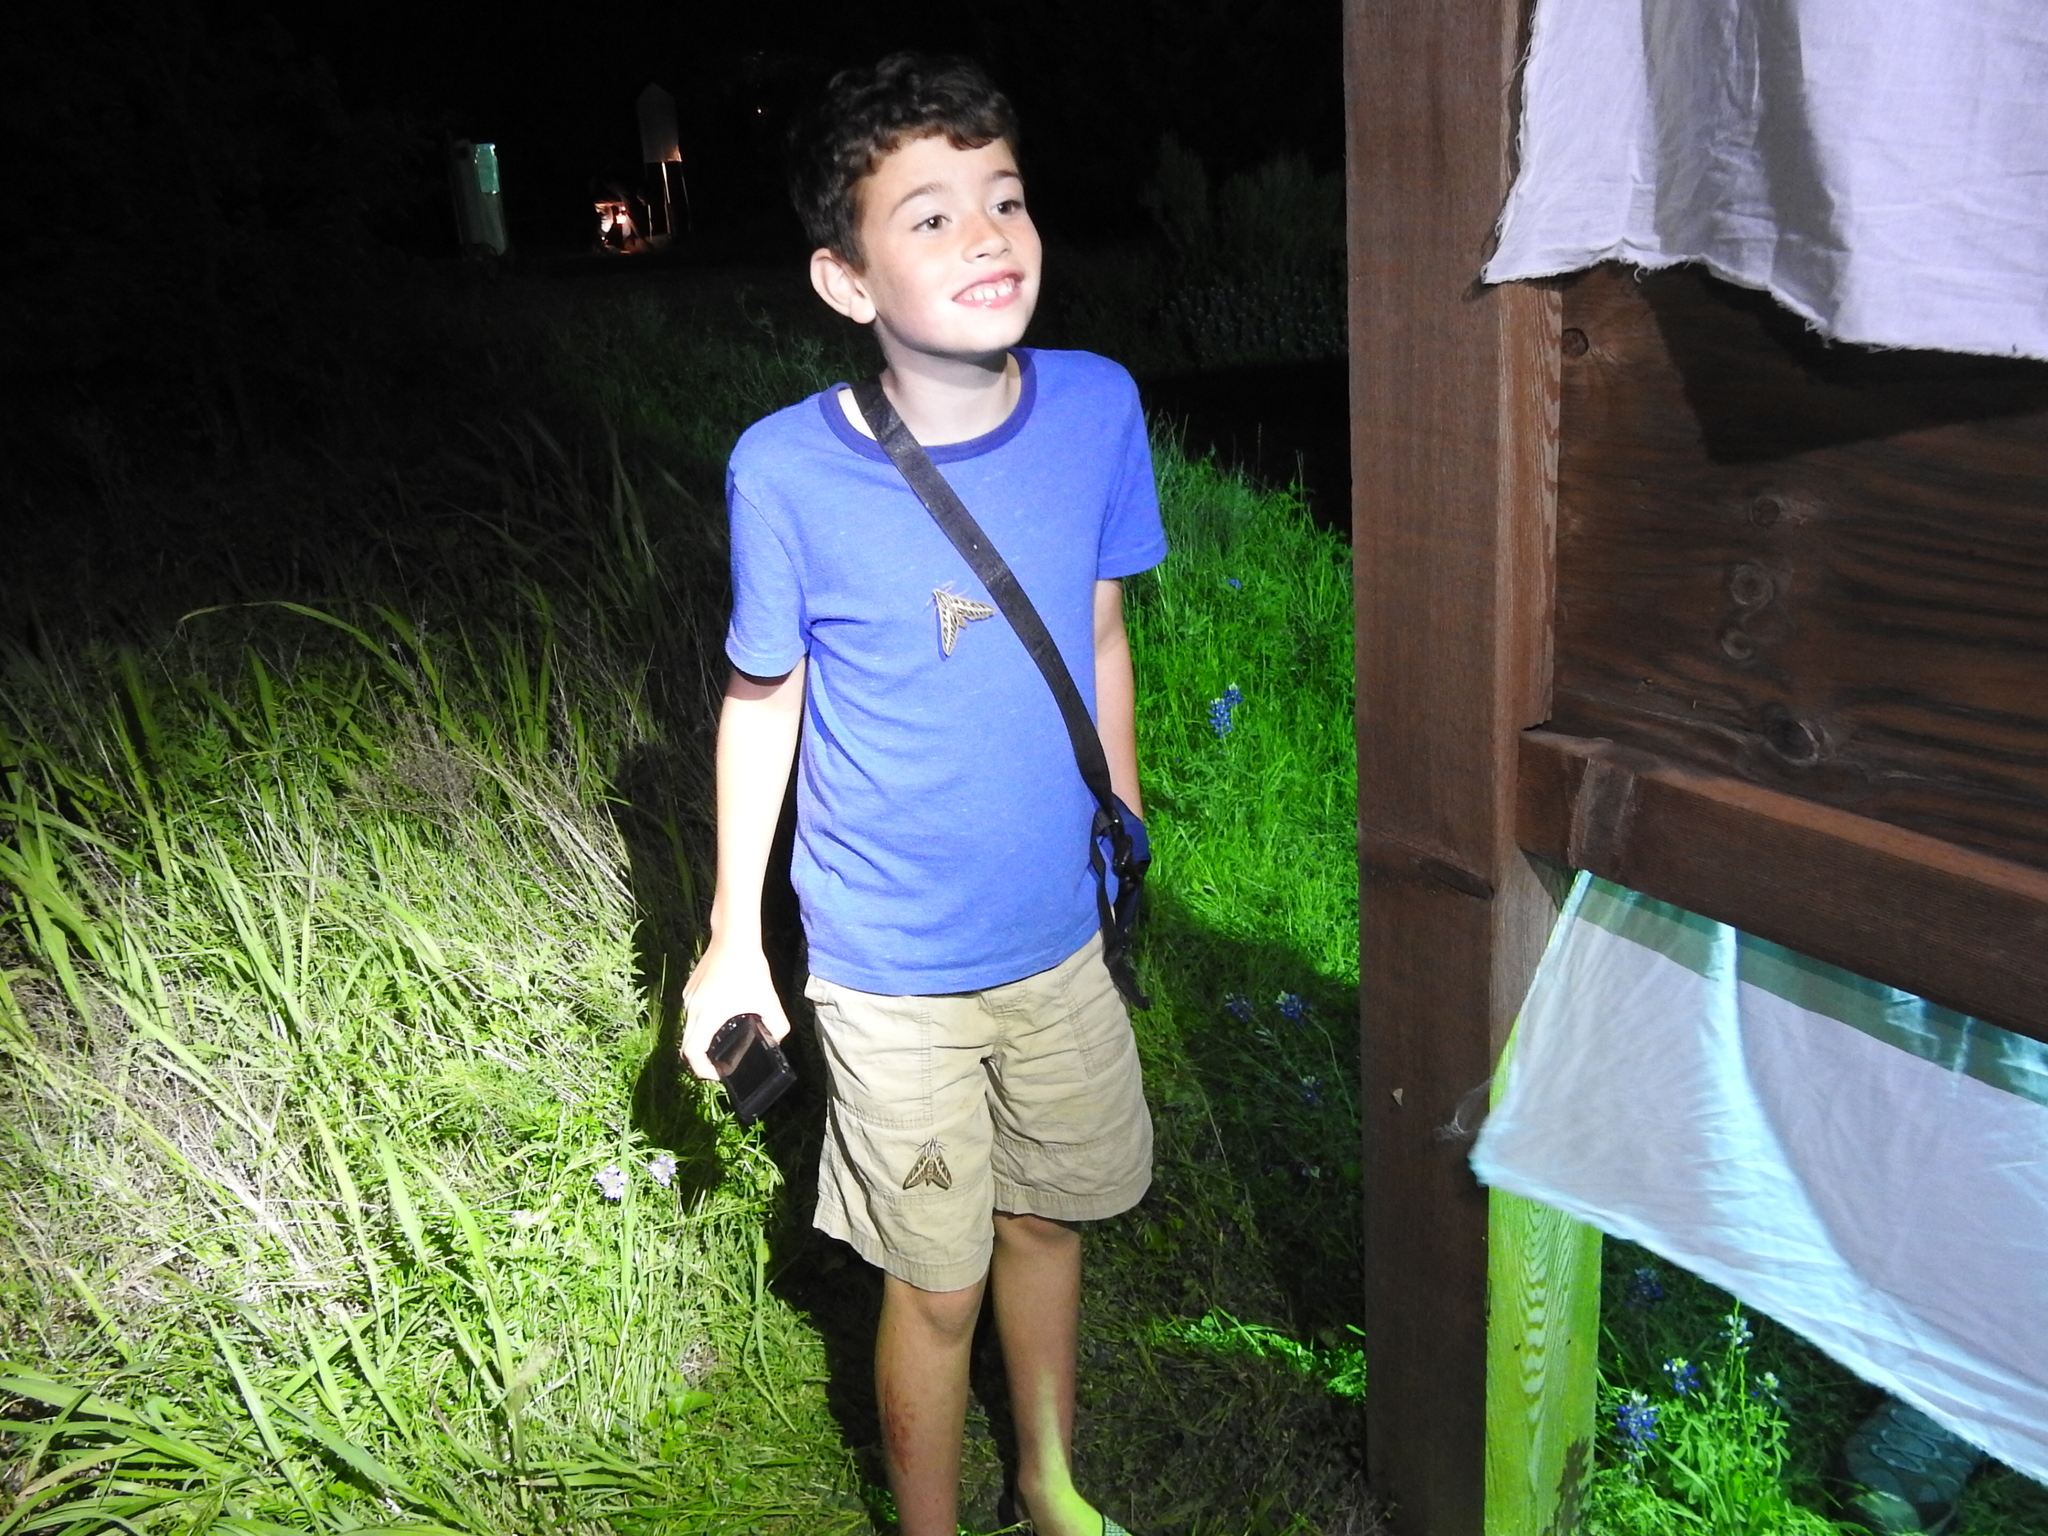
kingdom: Animalia
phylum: Arthropoda
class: Insecta
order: Lepidoptera
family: Sphingidae
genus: Hyles
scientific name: Hyles lineata
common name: White-lined sphinx
